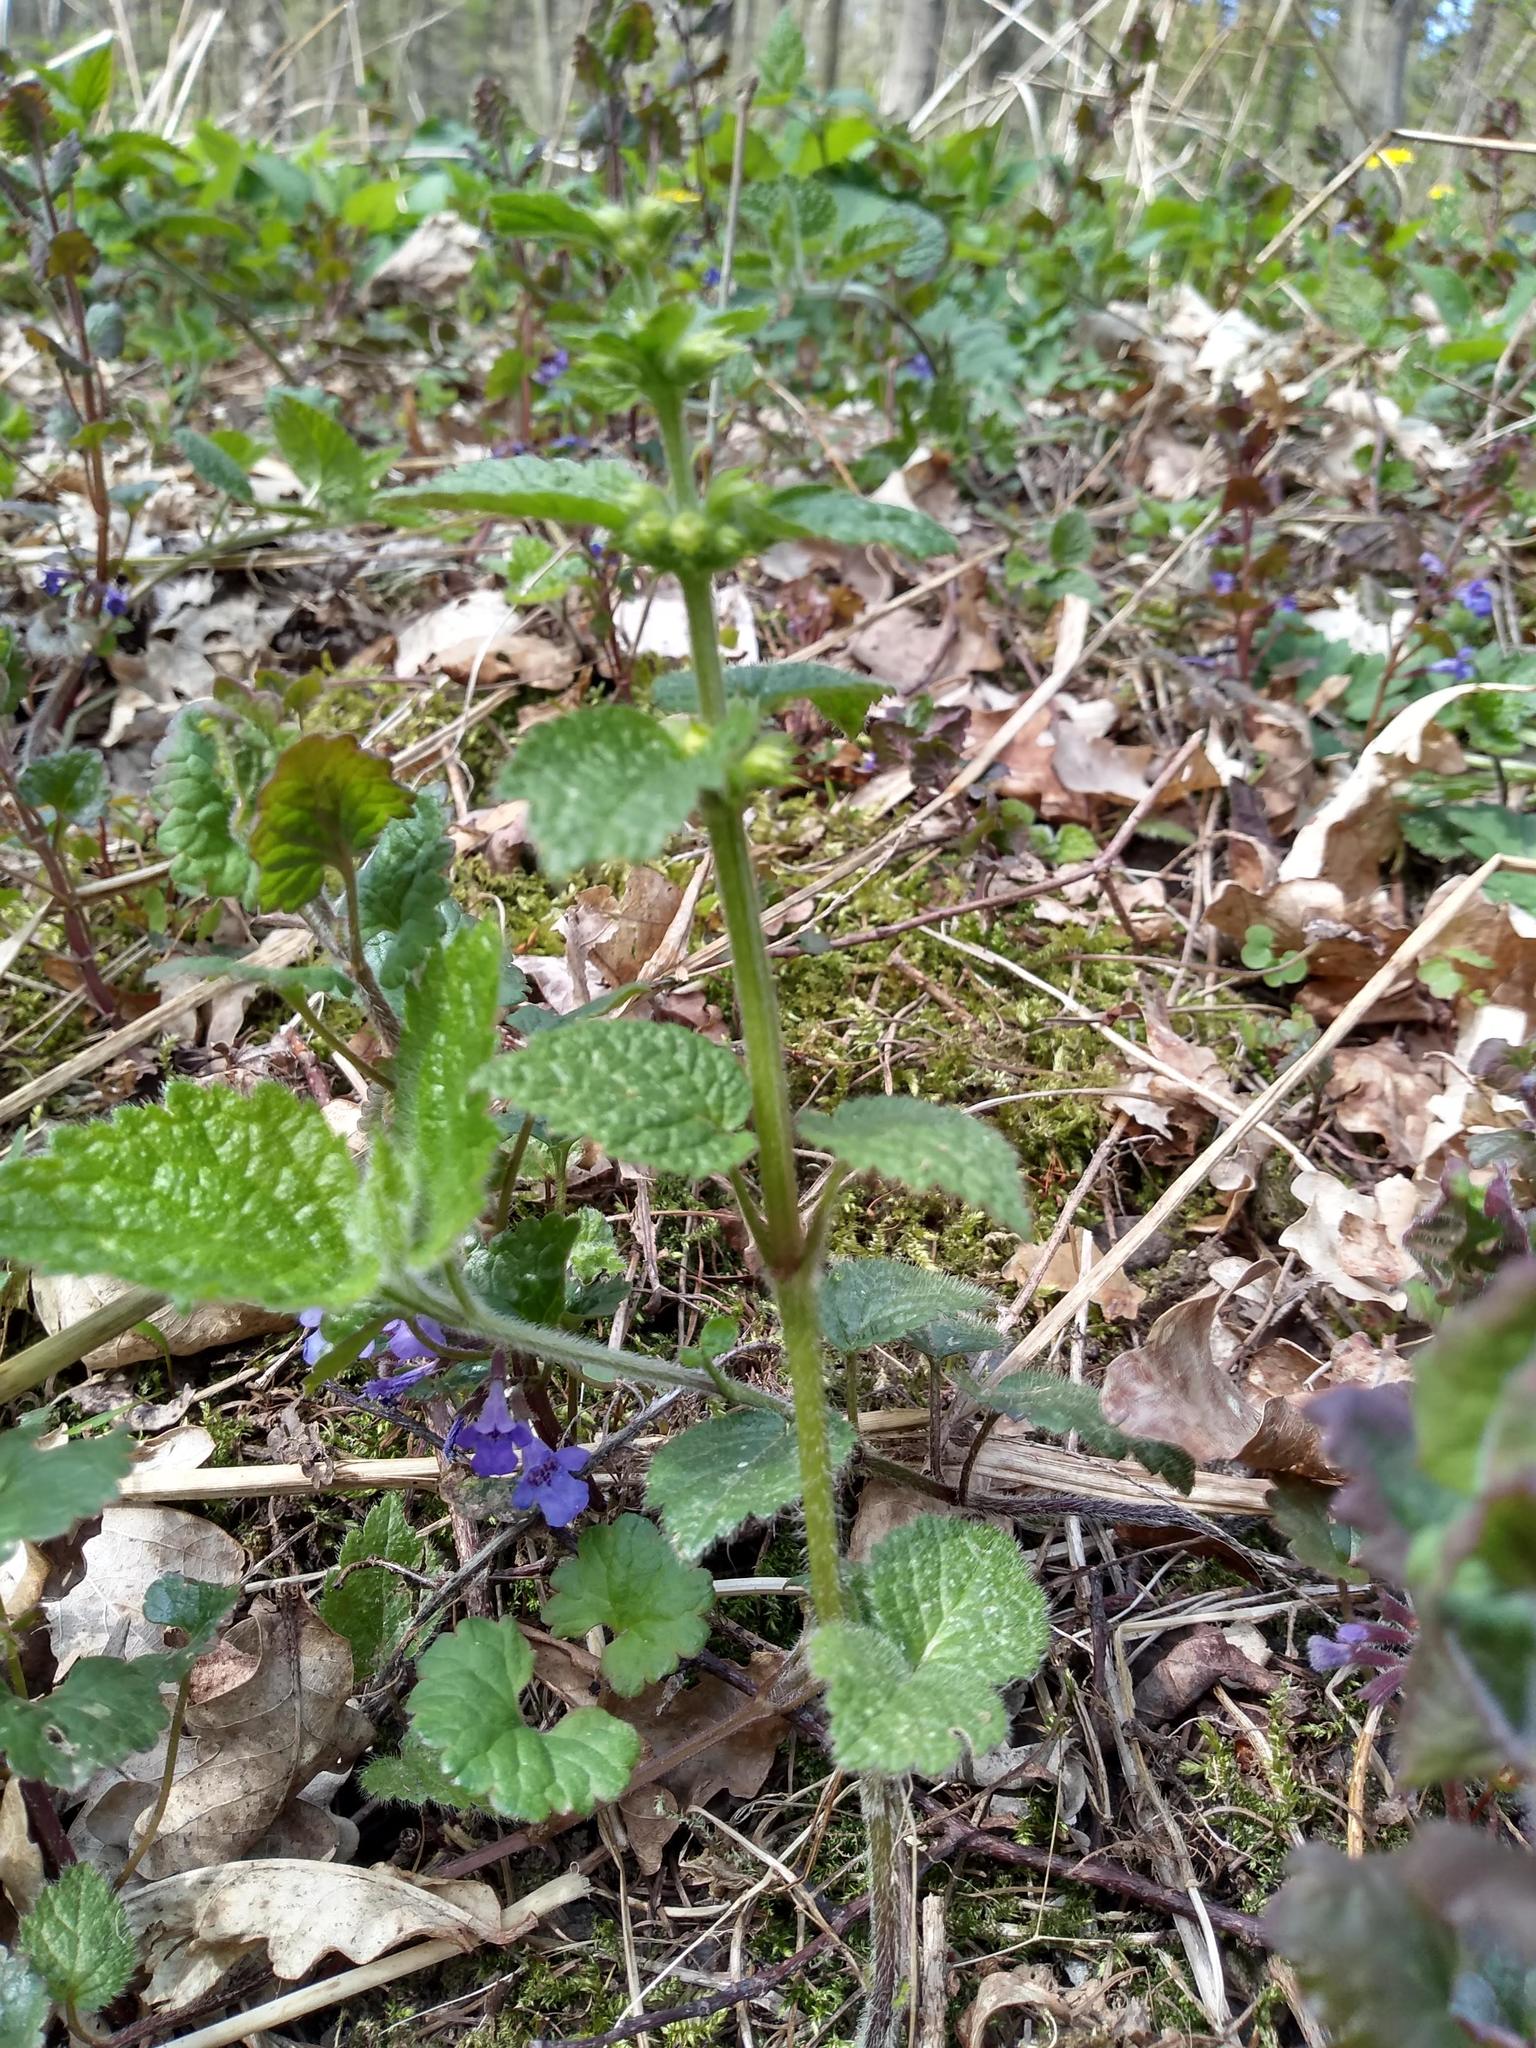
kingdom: Plantae
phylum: Tracheophyta
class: Magnoliopsida
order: Lamiales
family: Lamiaceae
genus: Lamium
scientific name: Lamium galeobdolon
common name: Yellow archangel
